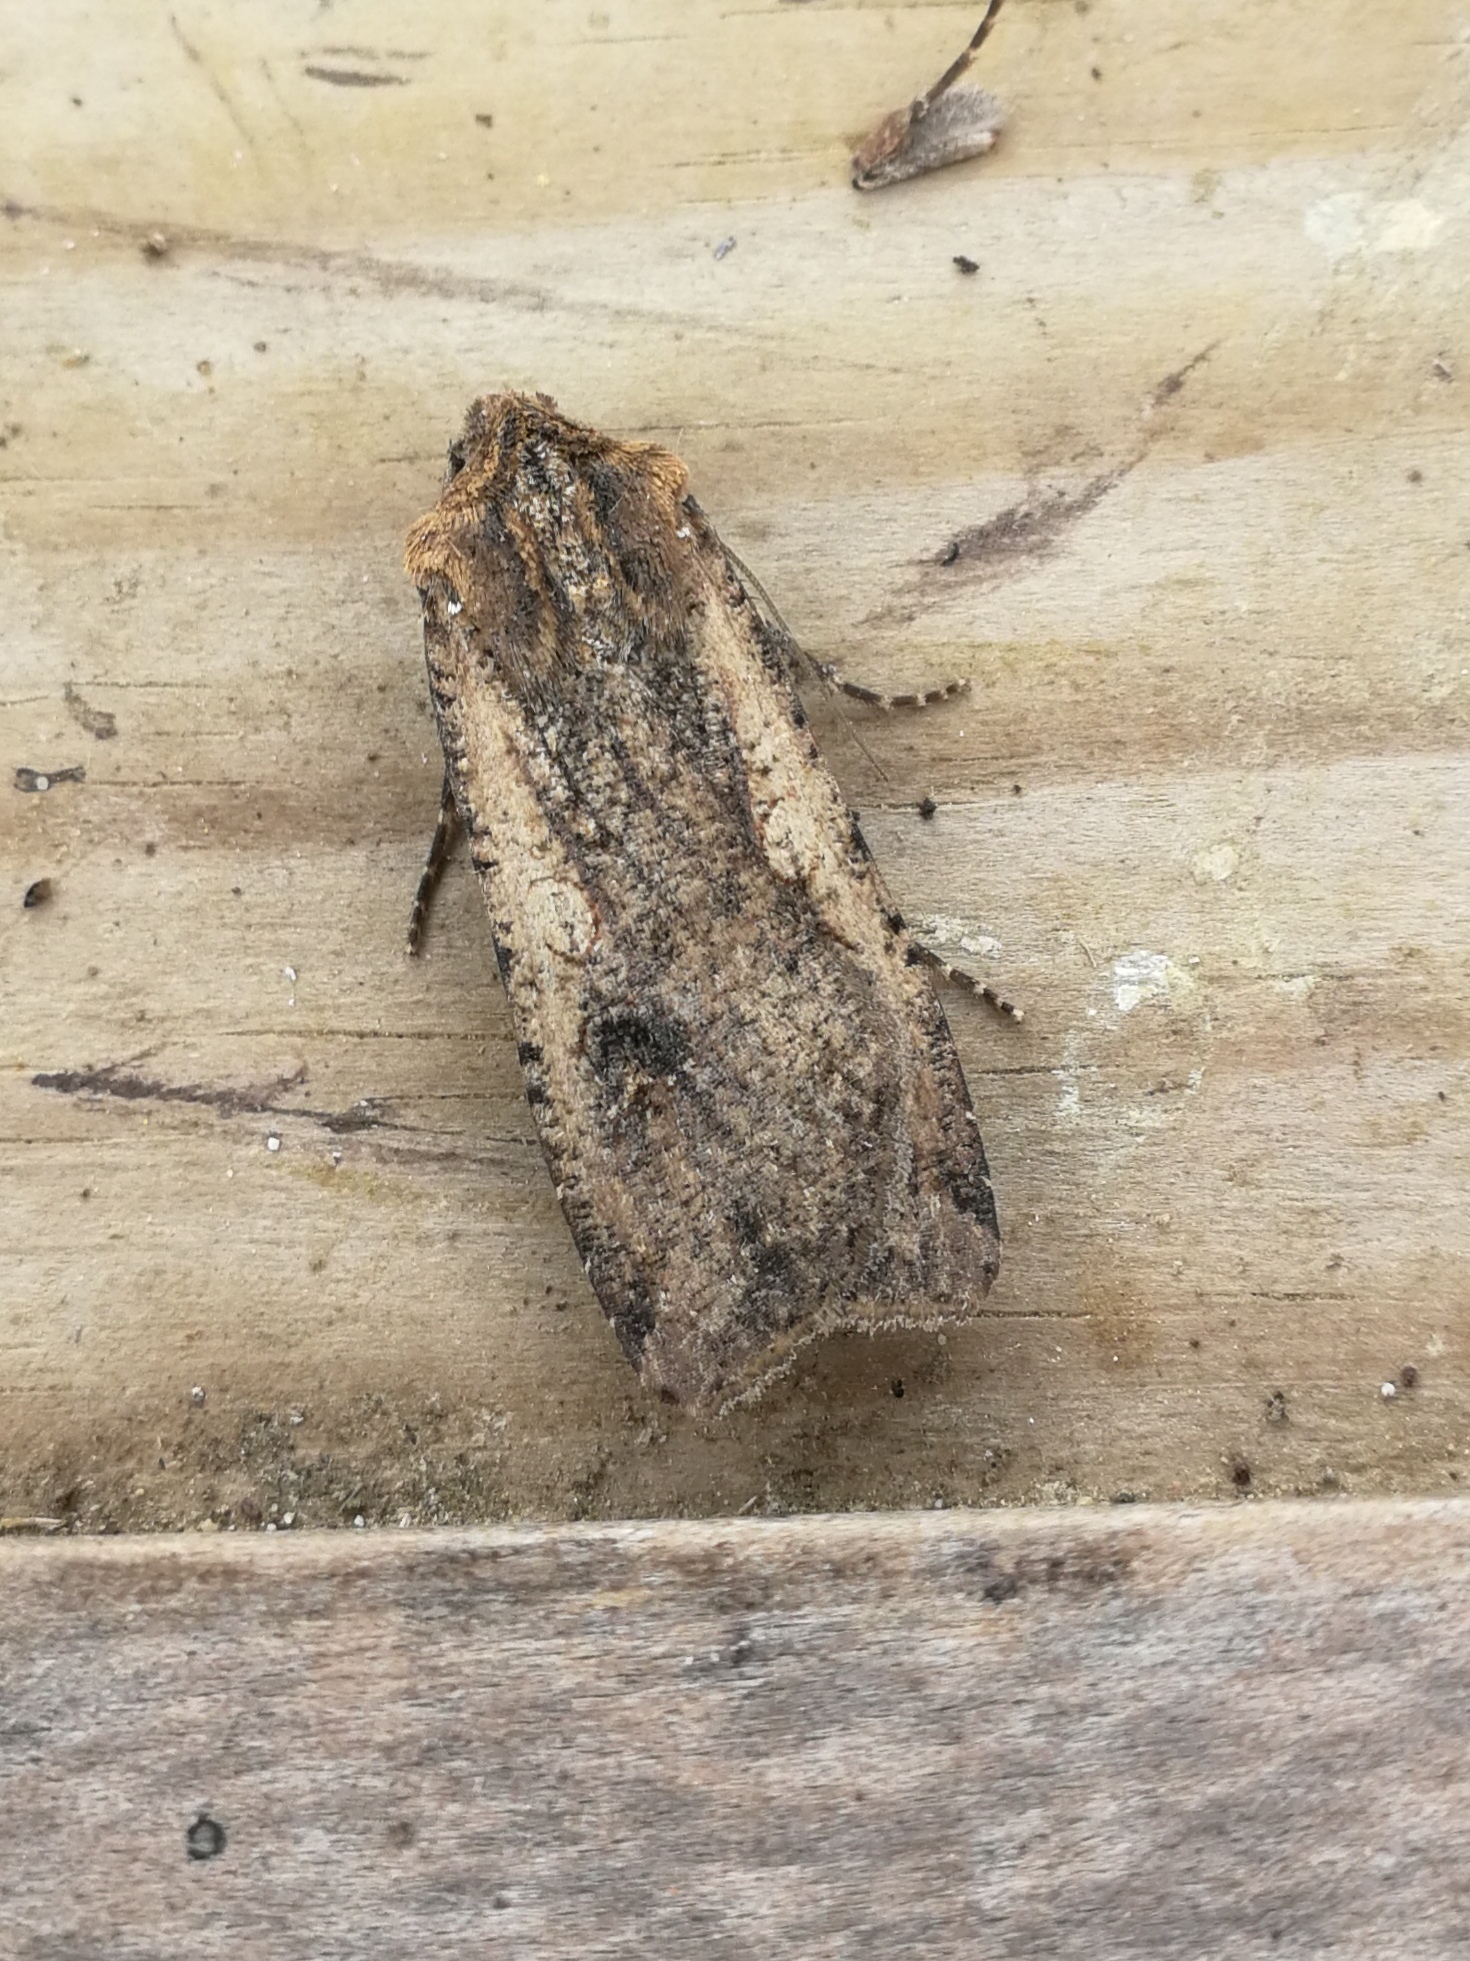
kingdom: Animalia
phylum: Arthropoda
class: Insecta
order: Lepidoptera
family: Noctuidae
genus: Peridroma
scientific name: Peridroma saucia
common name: Pearly underwing
